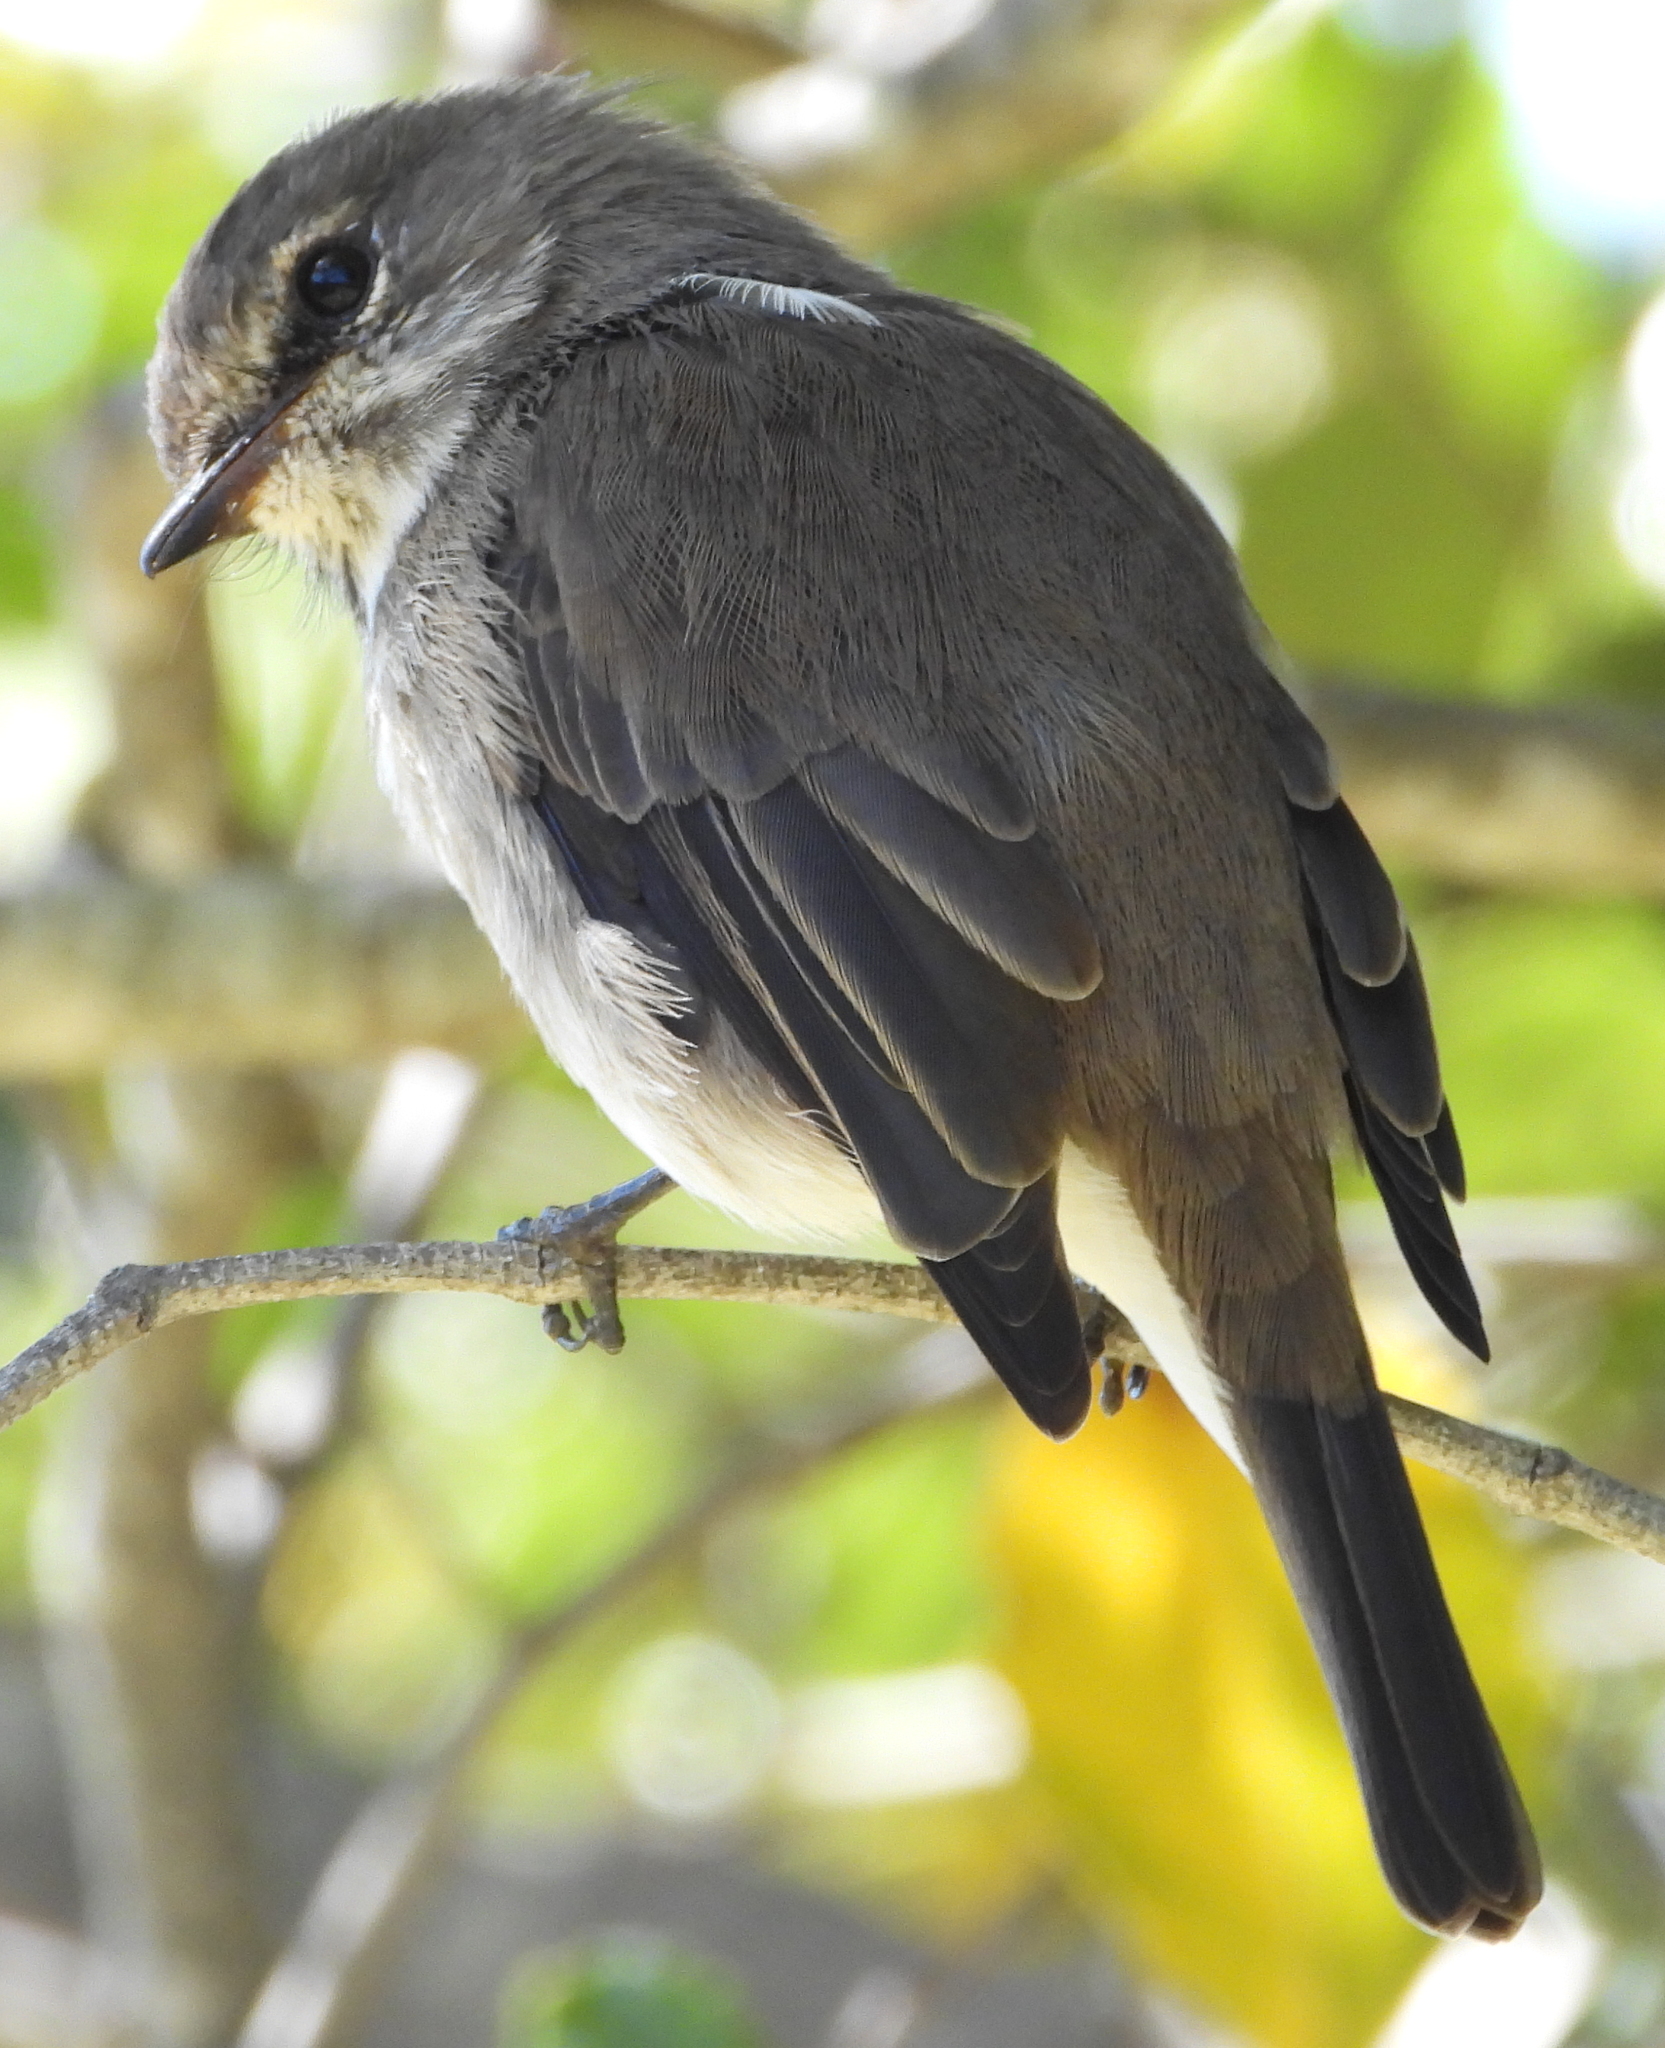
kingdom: Animalia
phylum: Chordata
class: Aves
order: Passeriformes
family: Muscicapidae
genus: Muscicapa
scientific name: Muscicapa adusta
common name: African dusky flycatcher
